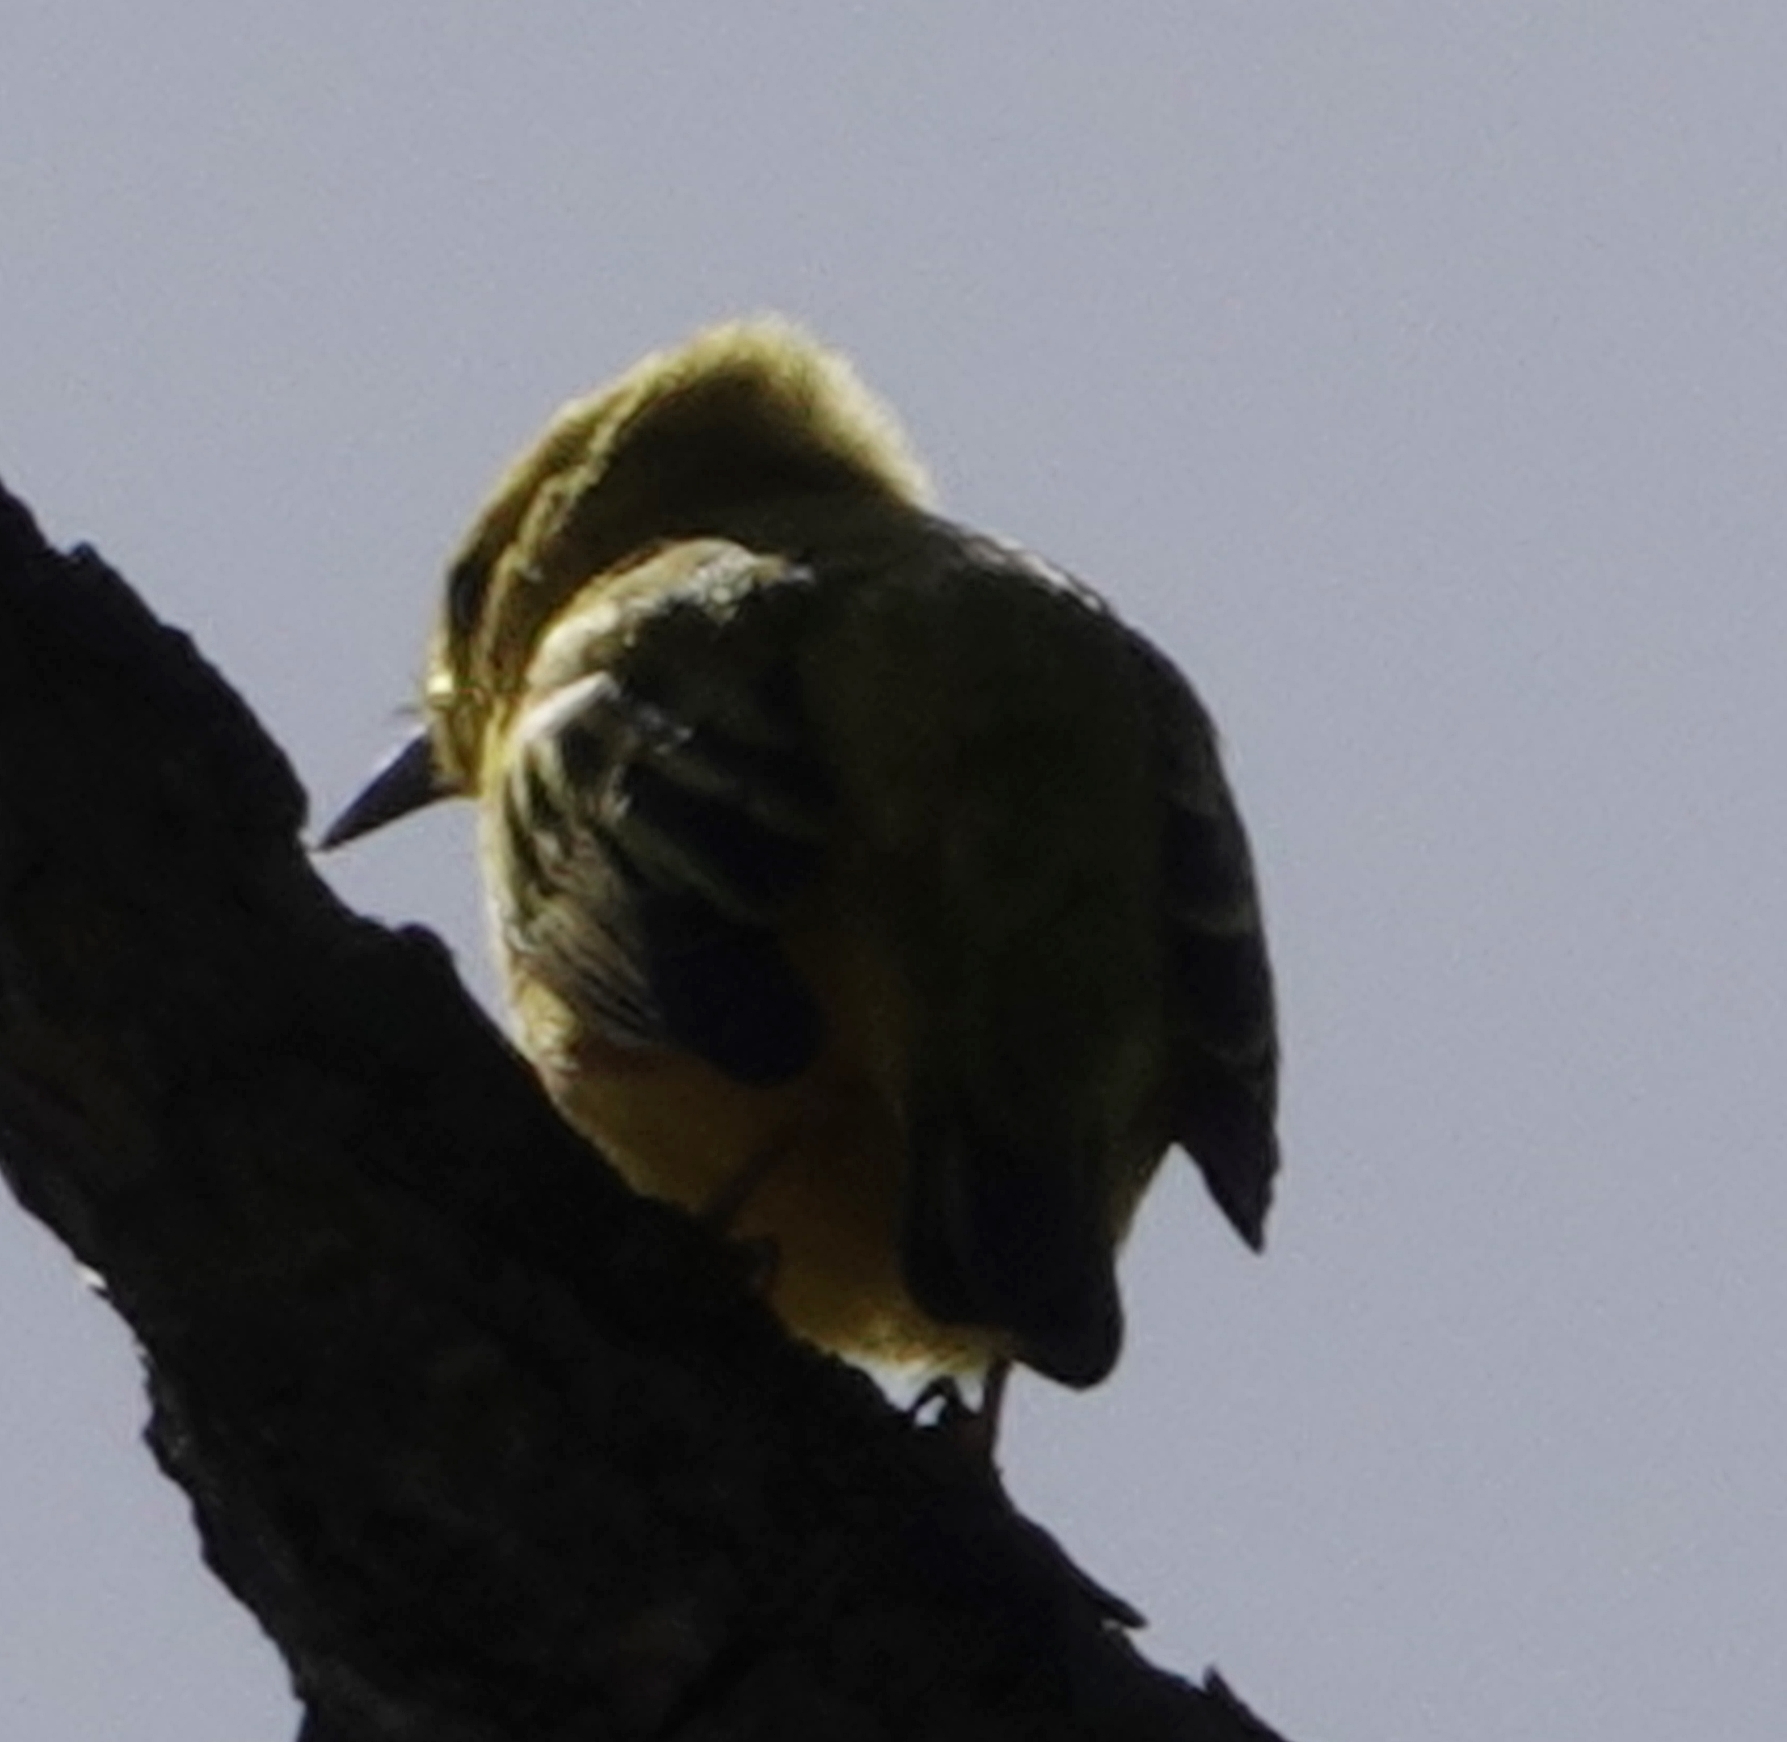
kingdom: Animalia
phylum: Chordata
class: Aves
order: Passeriformes
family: Parulidae
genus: Setophaga
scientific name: Setophaga petechia
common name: Yellow warbler
